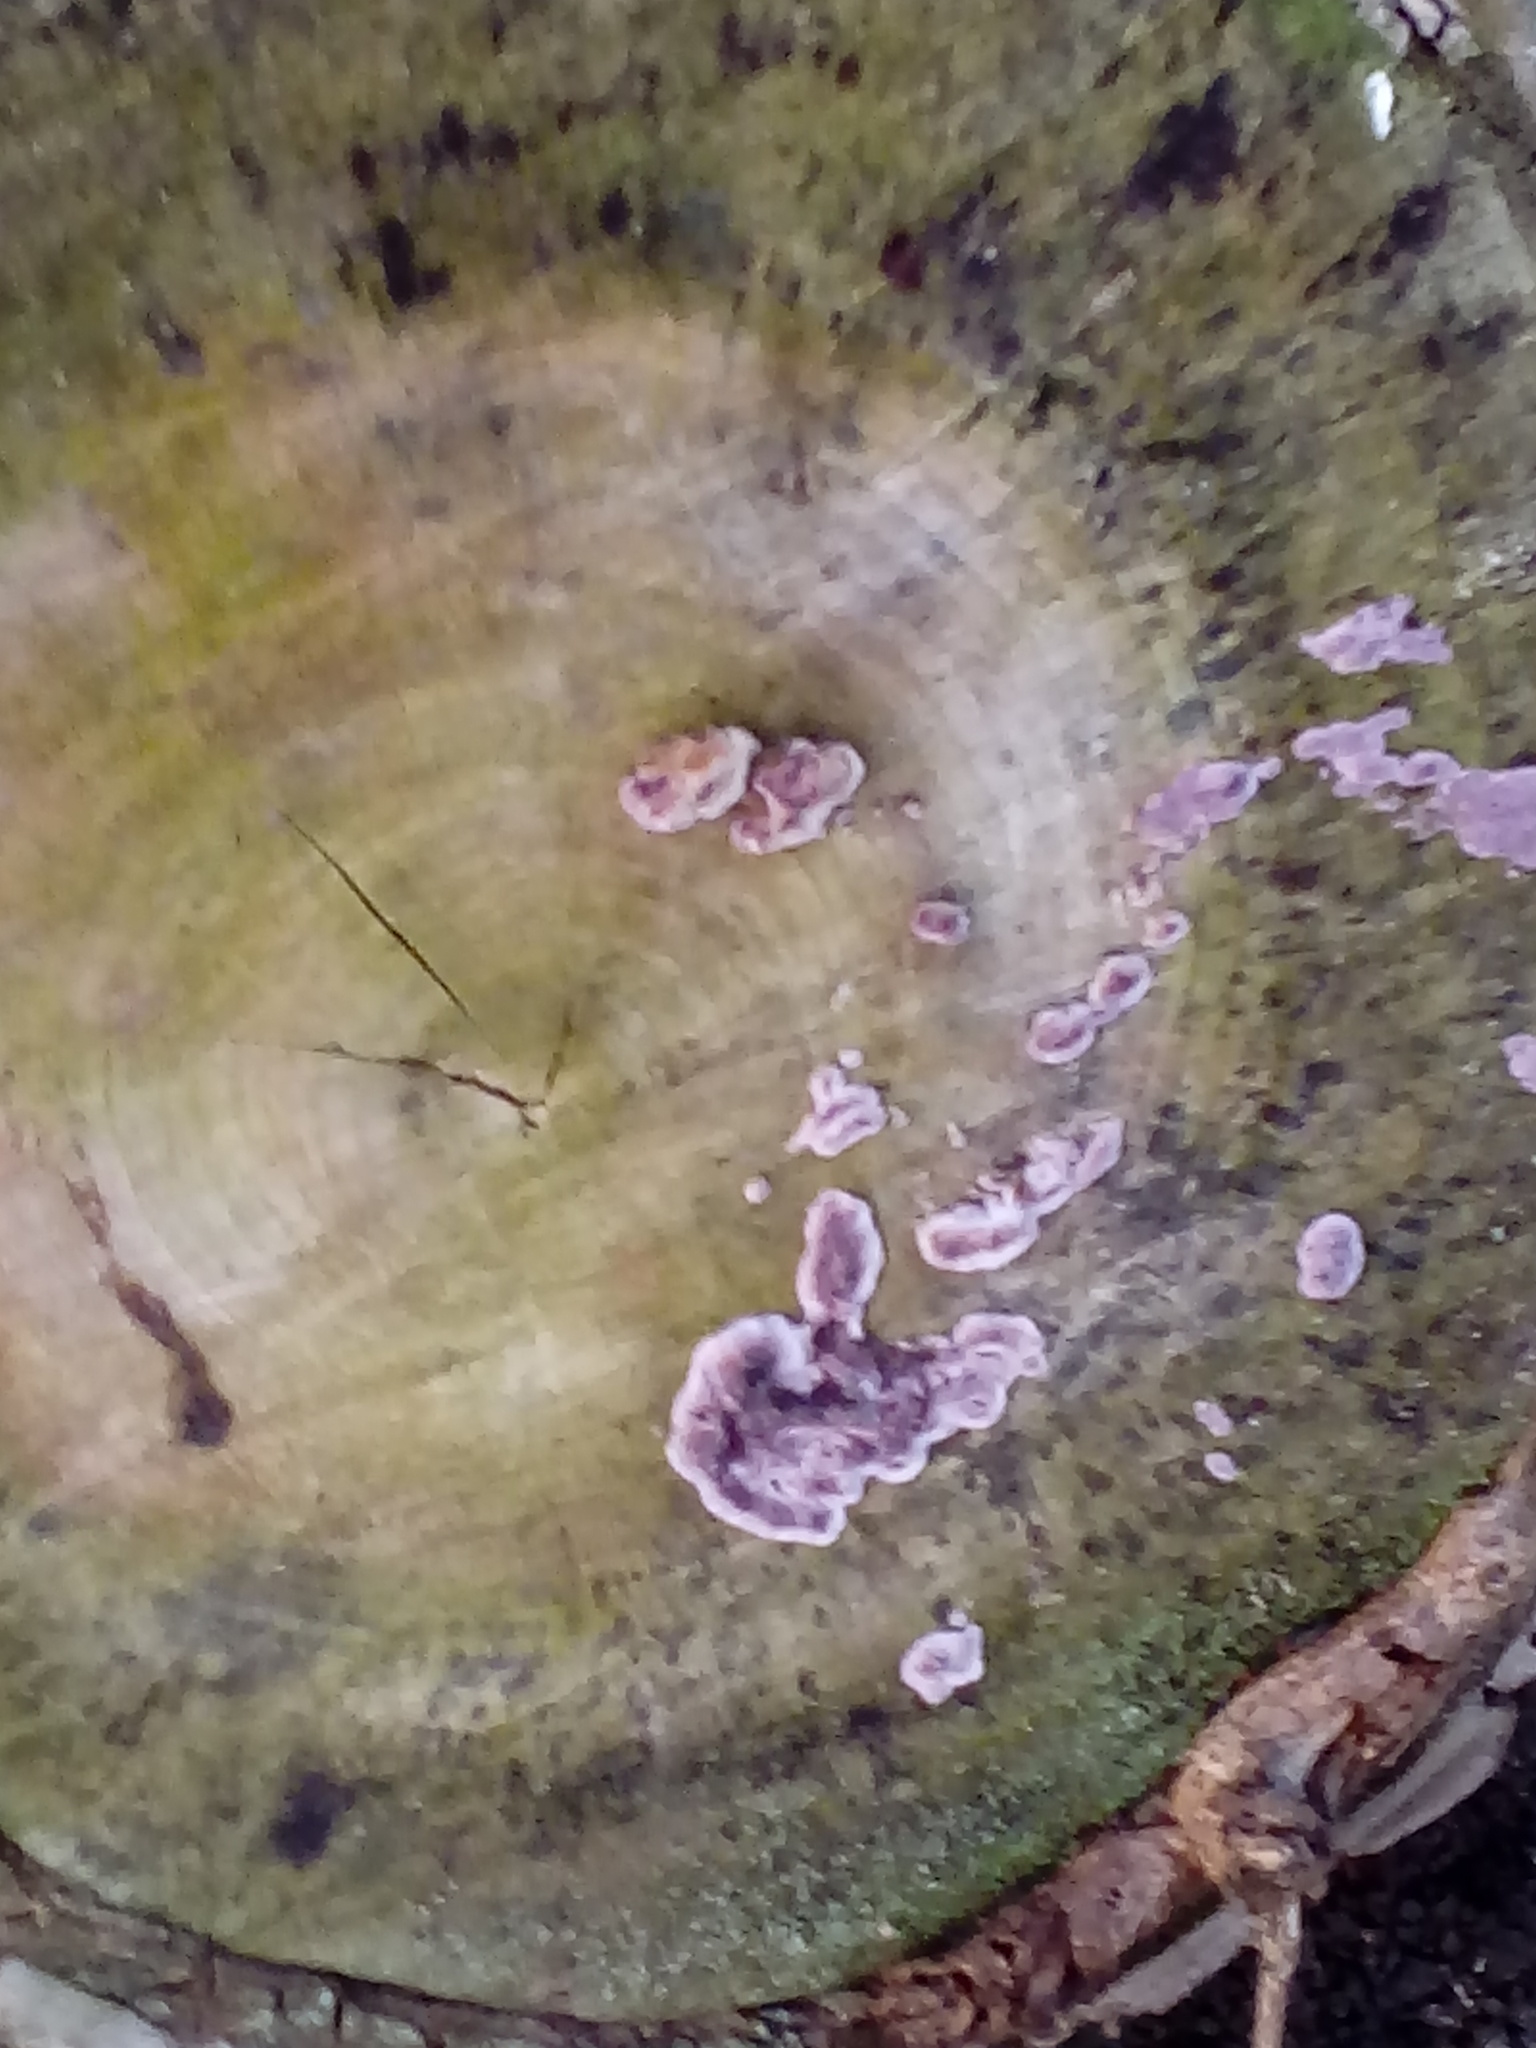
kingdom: Fungi
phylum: Basidiomycota
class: Agaricomycetes
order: Agaricales
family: Cyphellaceae
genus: Chondrostereum
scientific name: Chondrostereum purpureum
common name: Silver leaf disease
